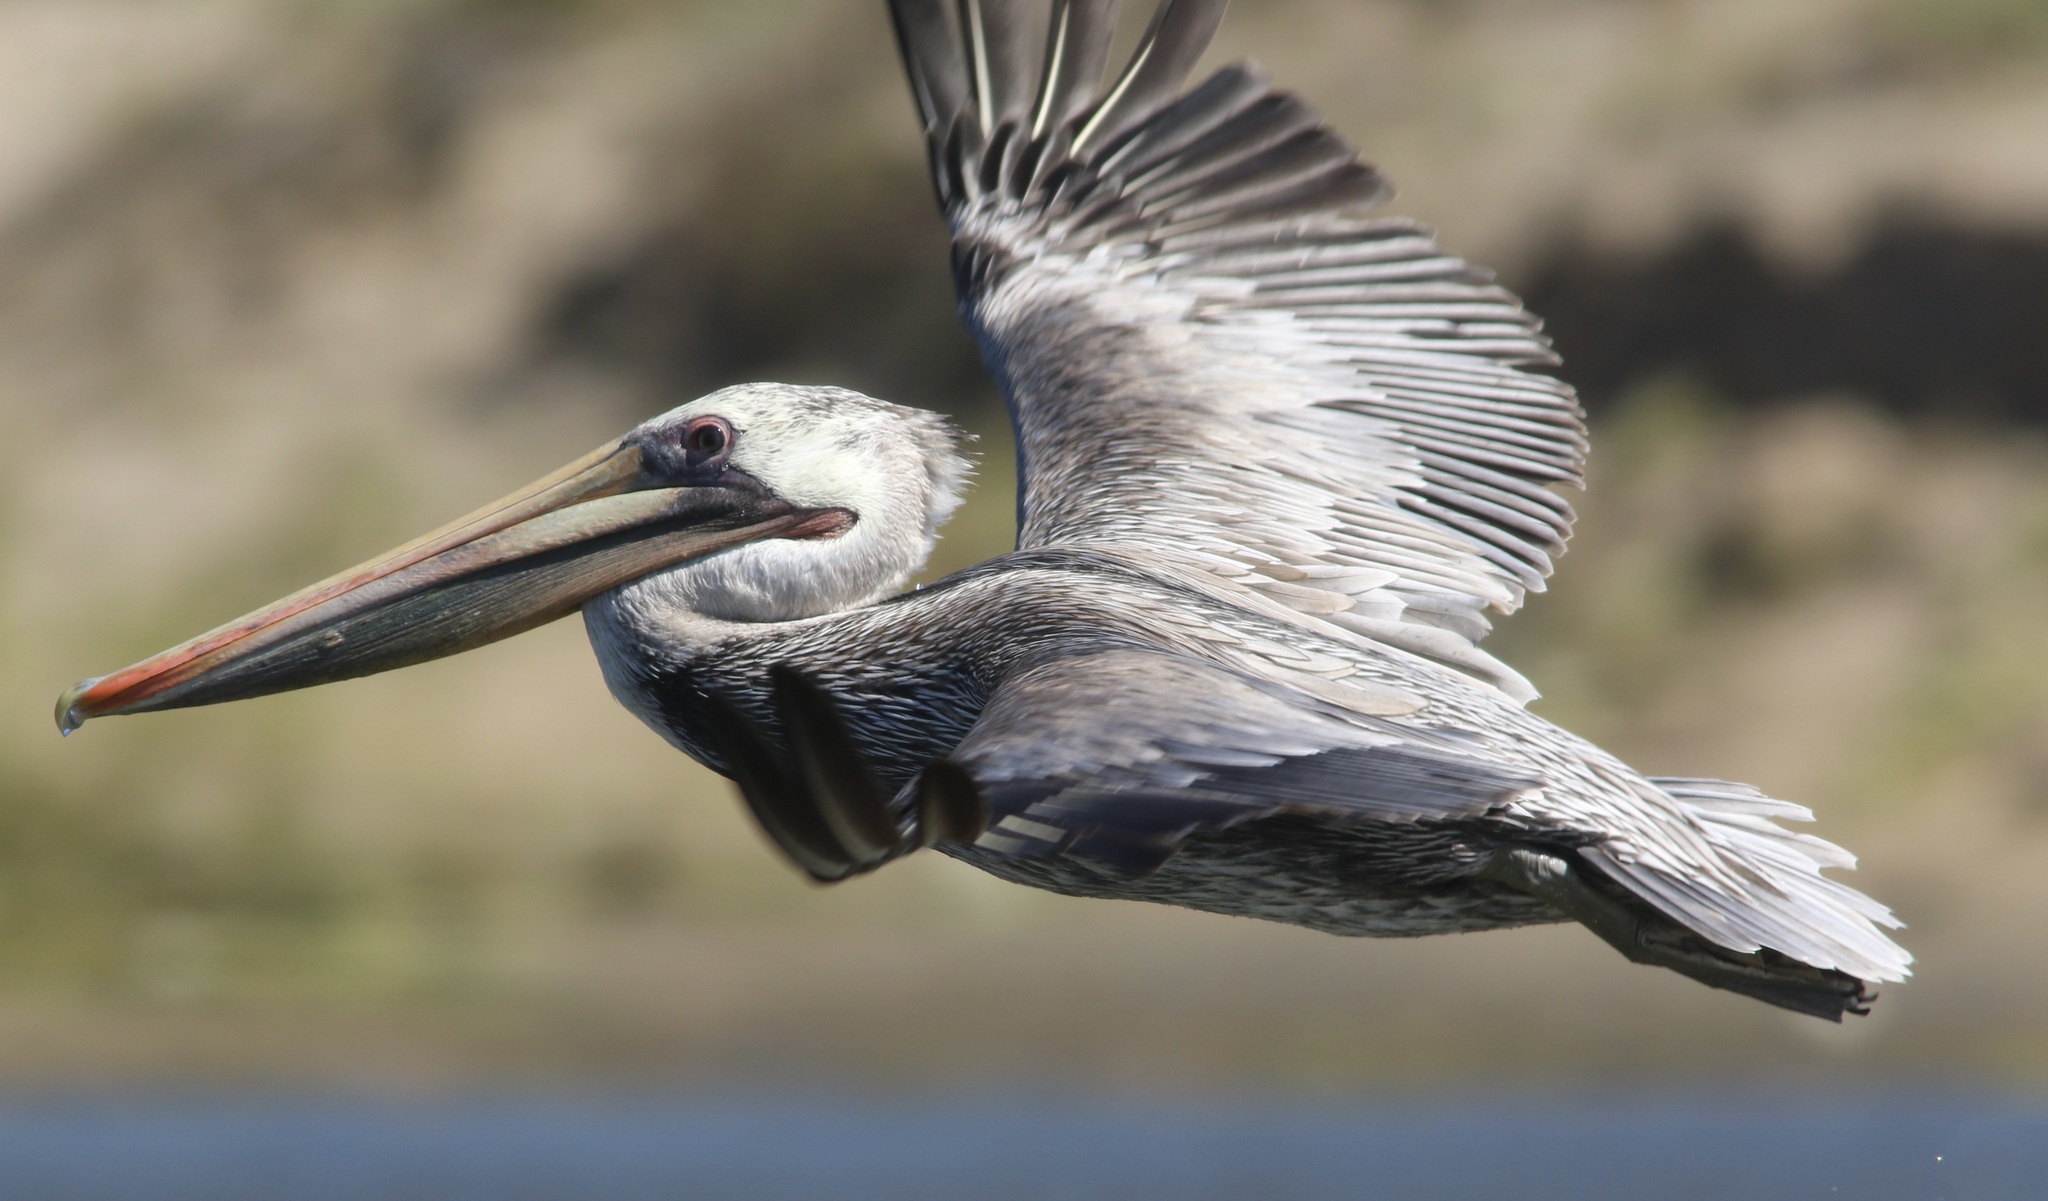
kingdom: Animalia
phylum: Chordata
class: Aves
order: Pelecaniformes
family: Pelecanidae
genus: Pelecanus
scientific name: Pelecanus occidentalis
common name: Brown pelican
